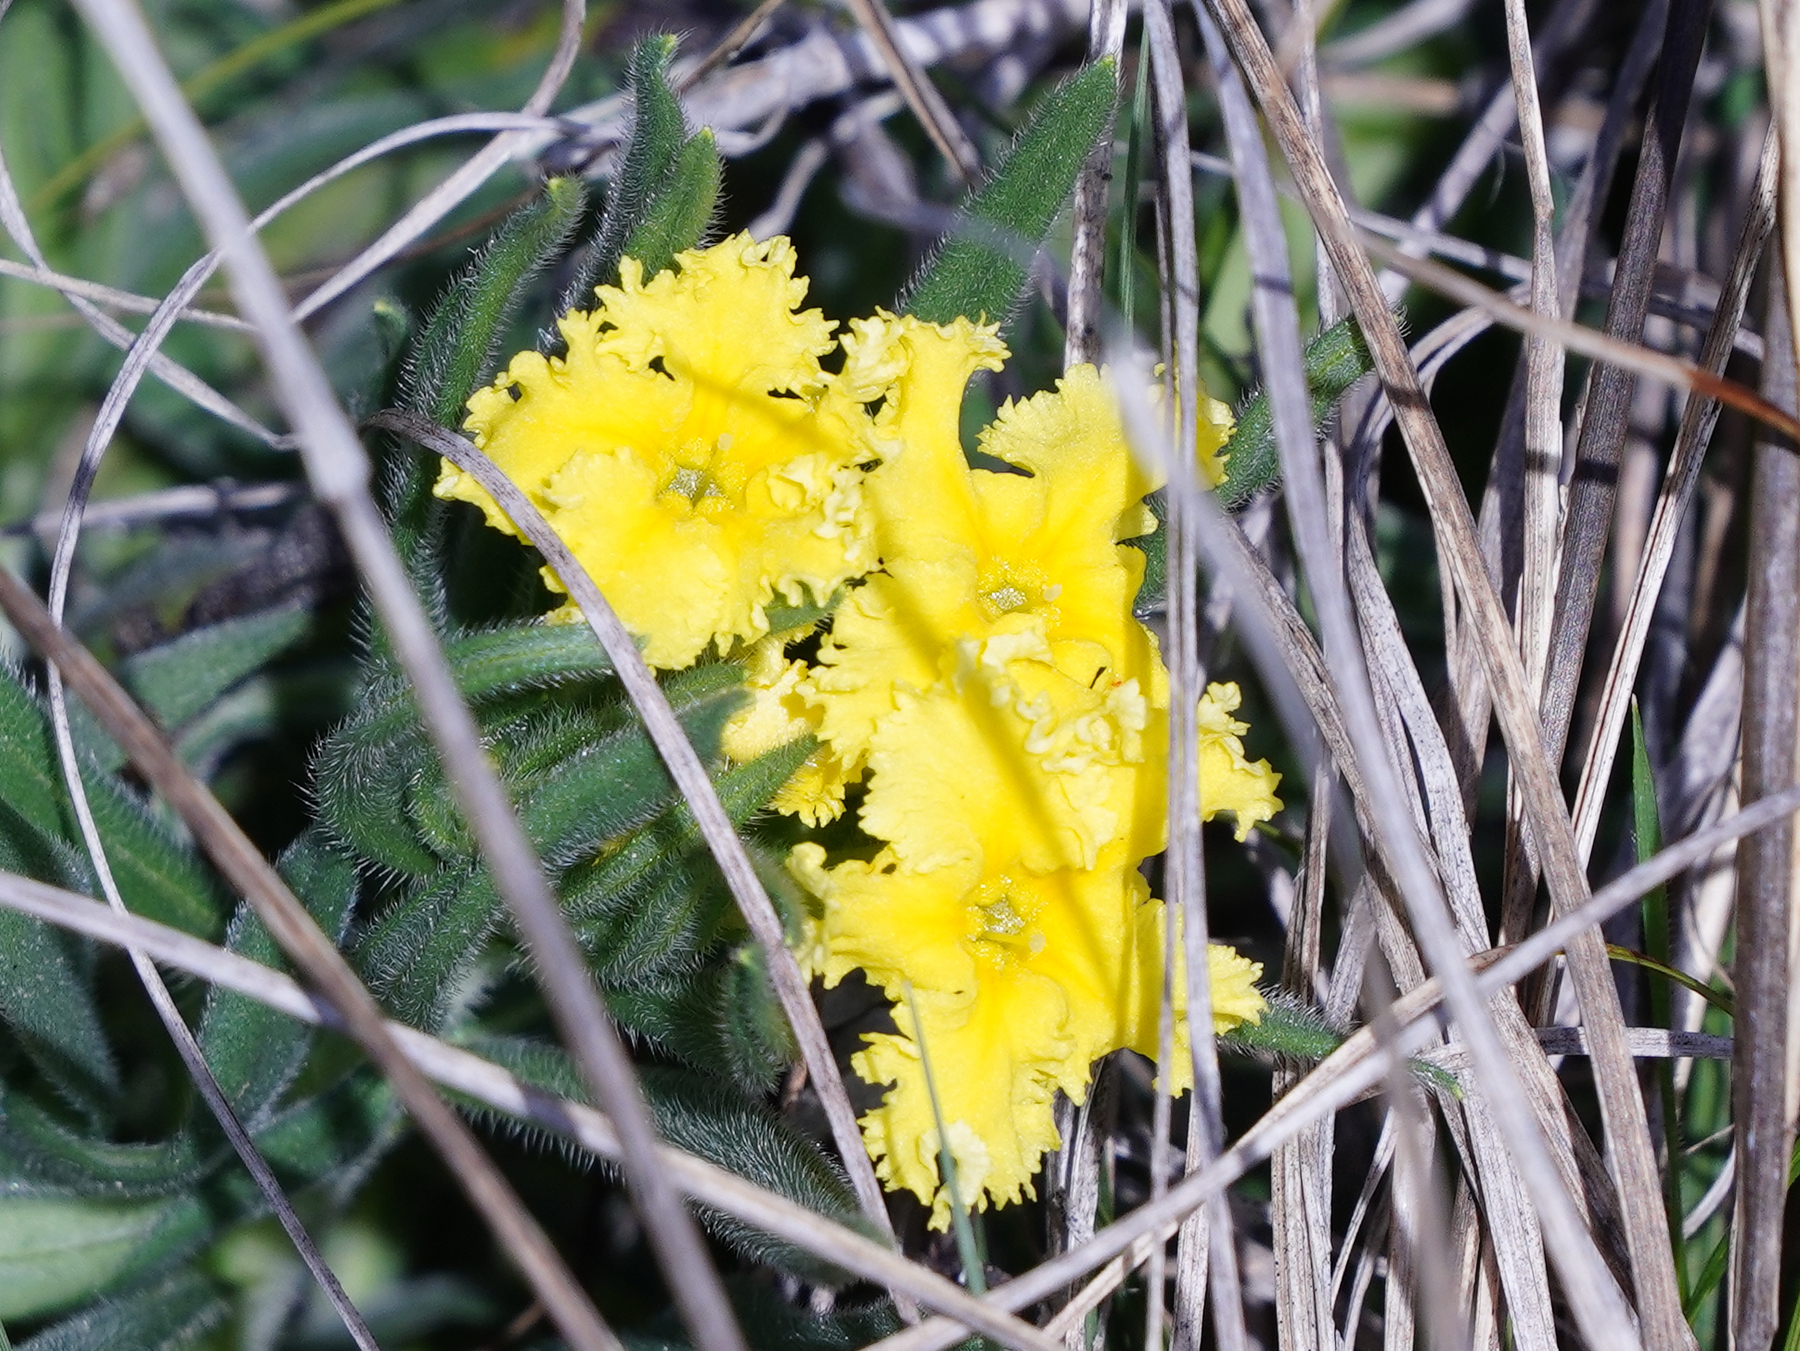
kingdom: Plantae
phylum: Tracheophyta
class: Magnoliopsida
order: Boraginales
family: Boraginaceae
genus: Lithospermum
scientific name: Lithospermum incisum
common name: Fringed gromwell
